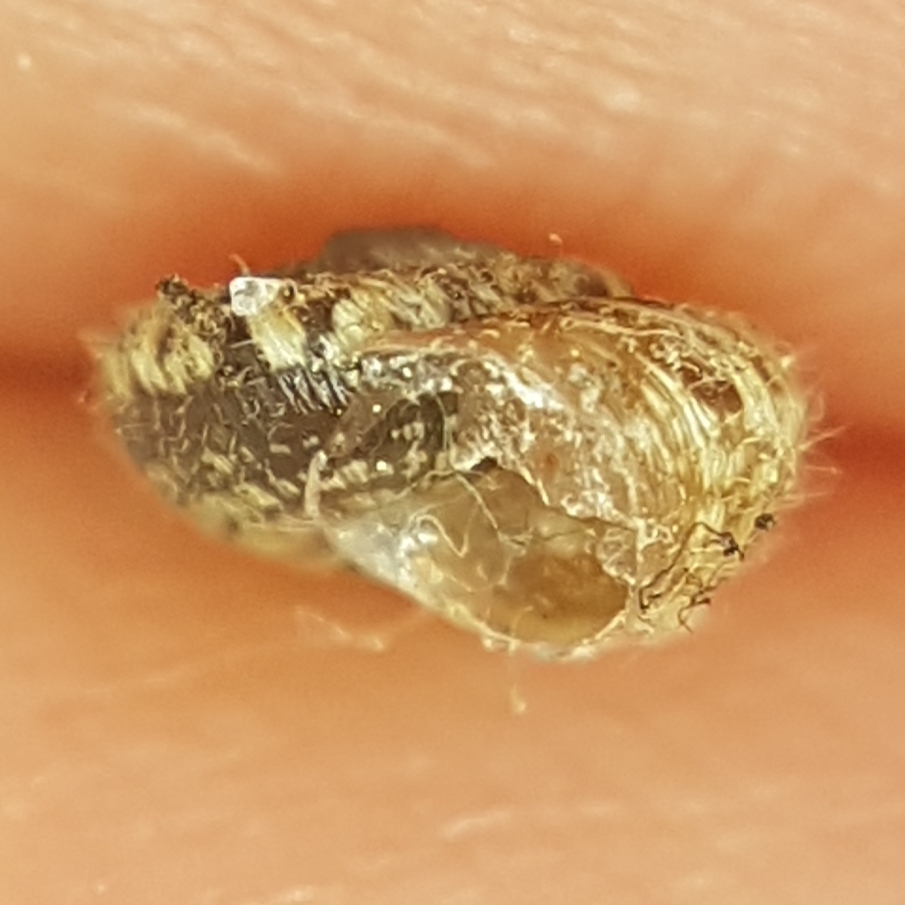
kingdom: Animalia
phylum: Mollusca
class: Gastropoda
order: Stylommatophora
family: Geomitridae
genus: Xerotricha
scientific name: Xerotricha conspurcata
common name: Snail
